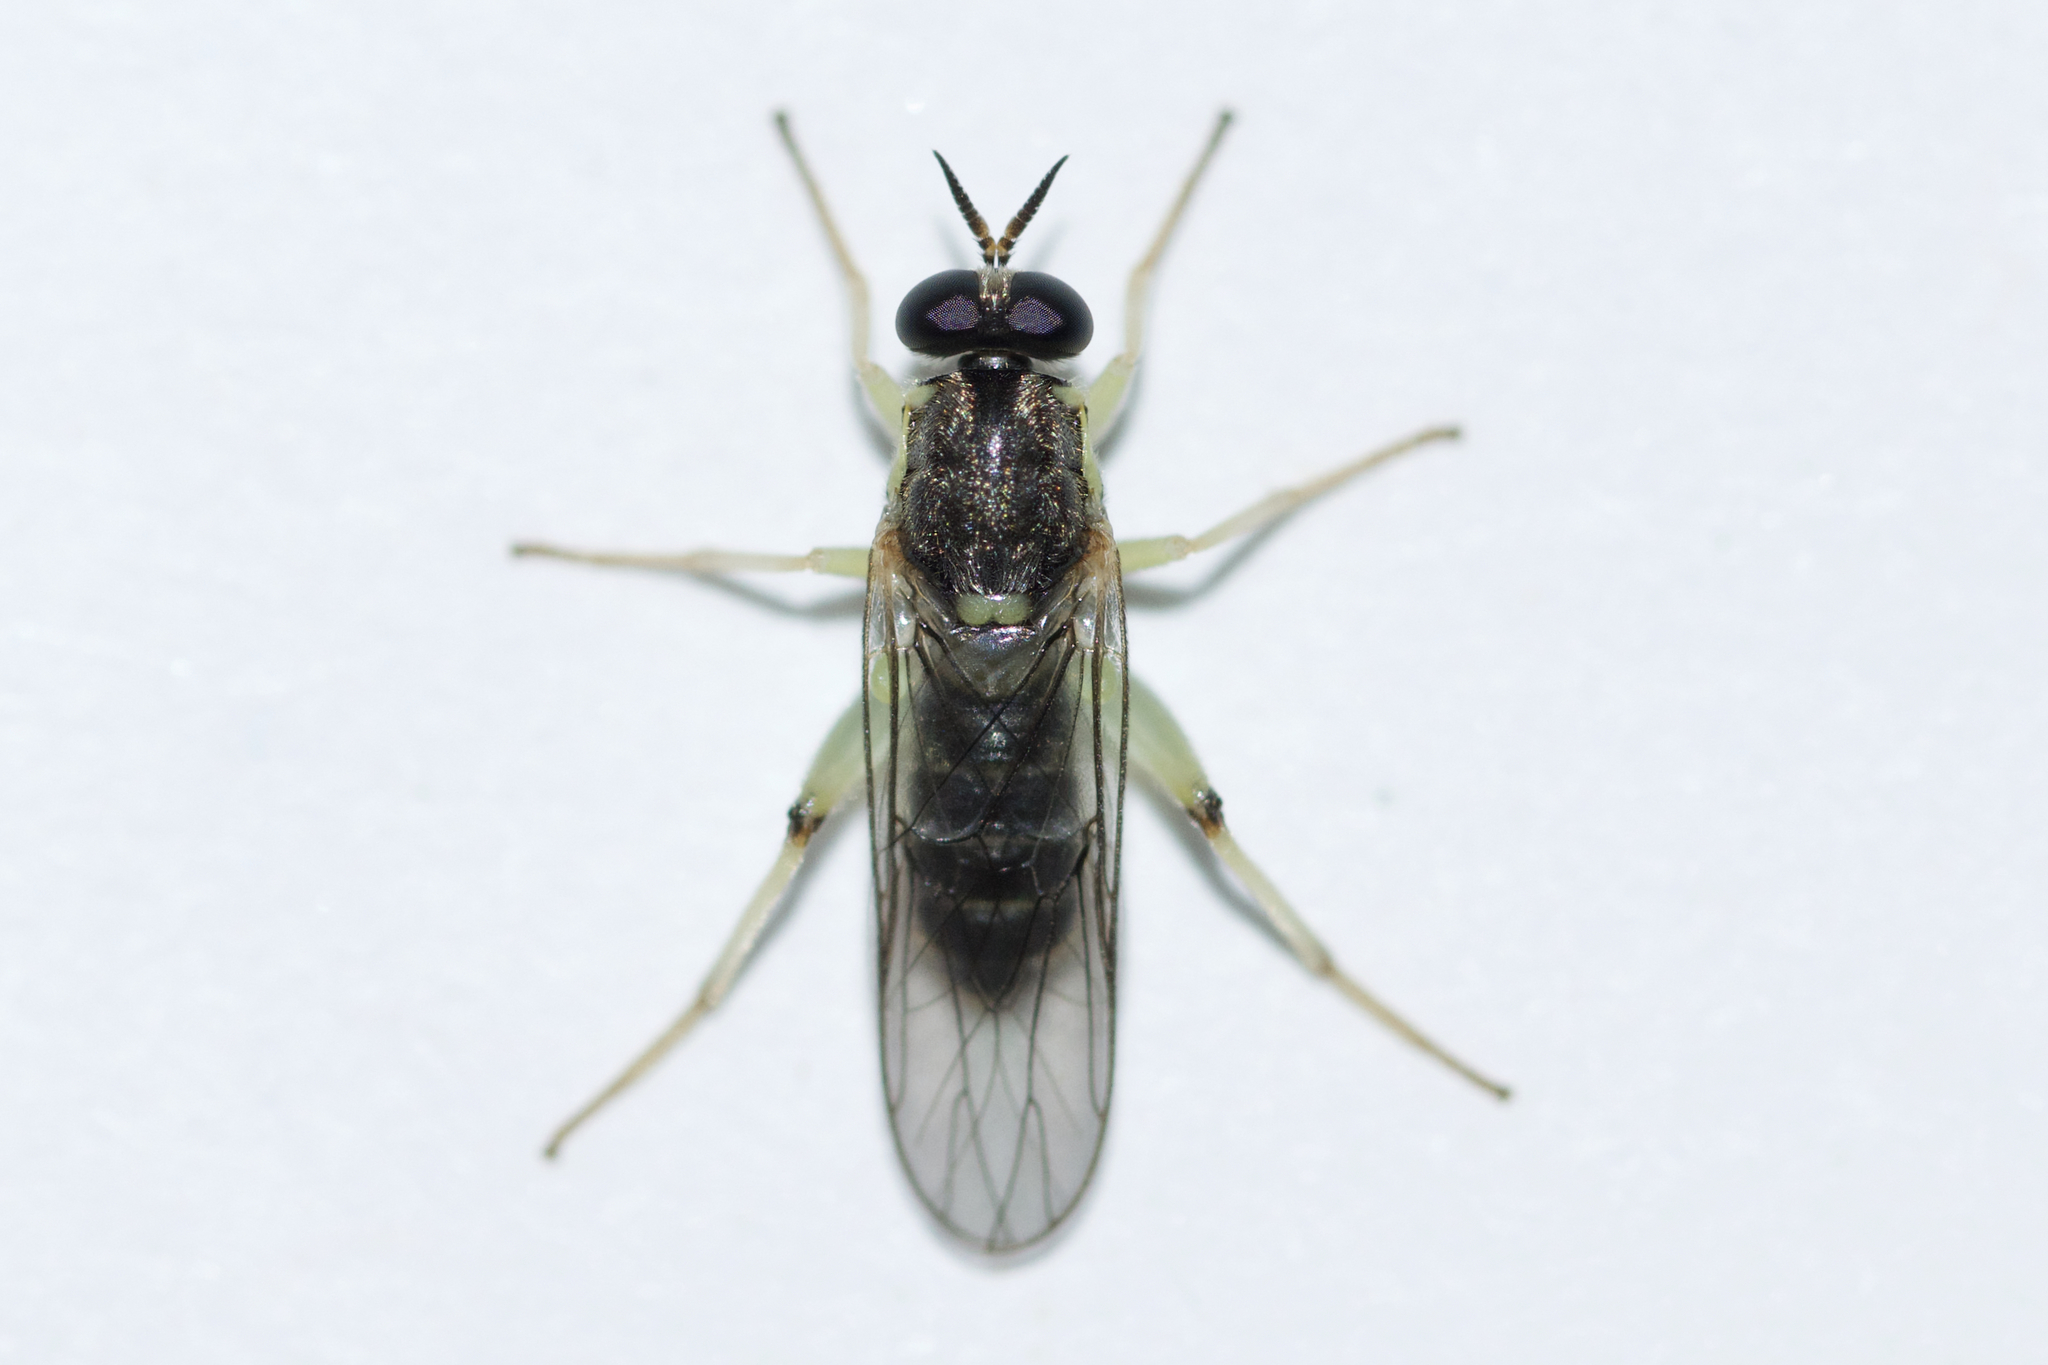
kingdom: Animalia
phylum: Arthropoda
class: Insecta
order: Diptera
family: Xylomyidae
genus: Solva
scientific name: Solva pallipes
